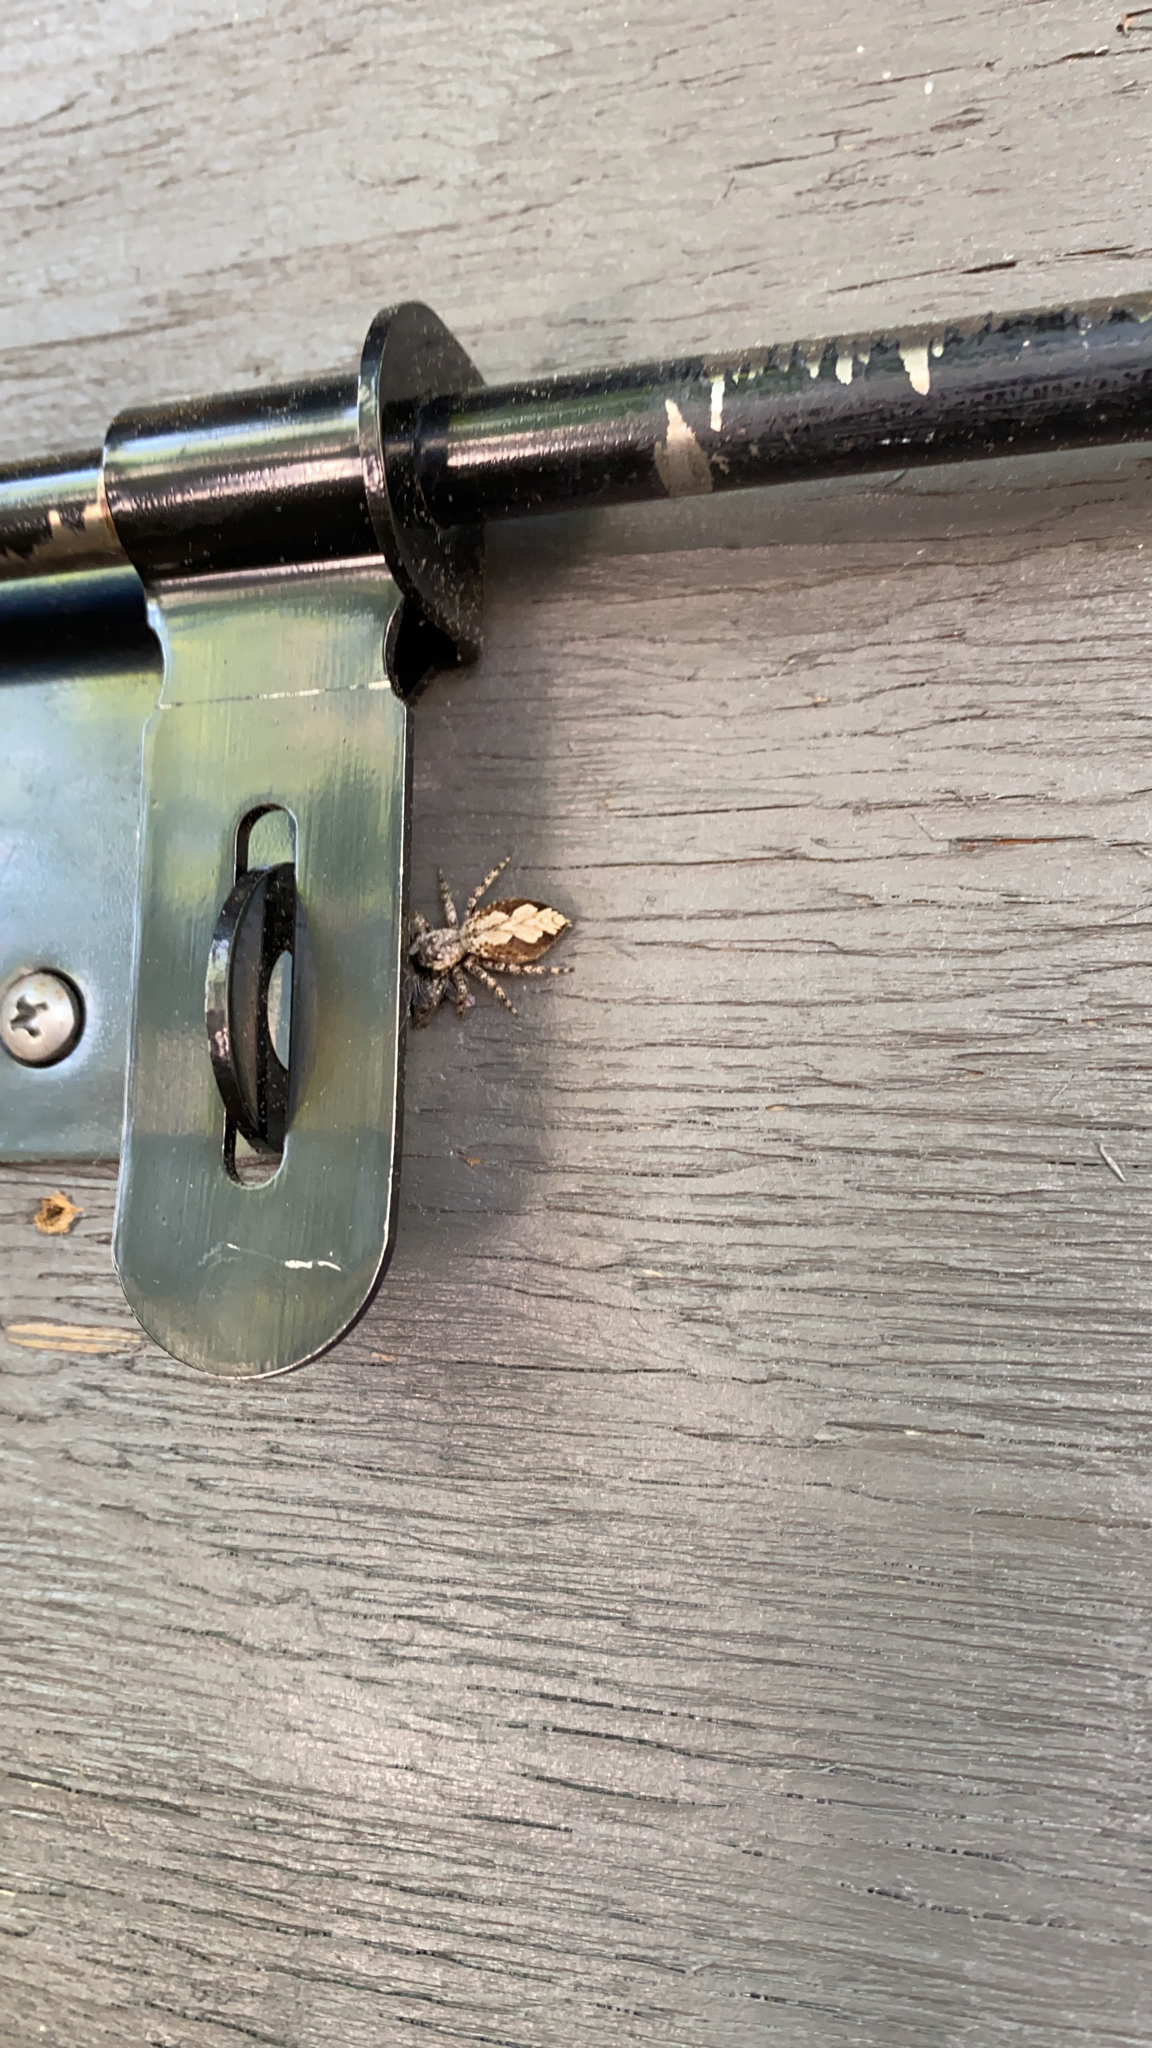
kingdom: Animalia
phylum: Arthropoda
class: Arachnida
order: Araneae
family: Salticidae
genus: Platycryptus
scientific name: Platycryptus undatus
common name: Tan jumping spider
